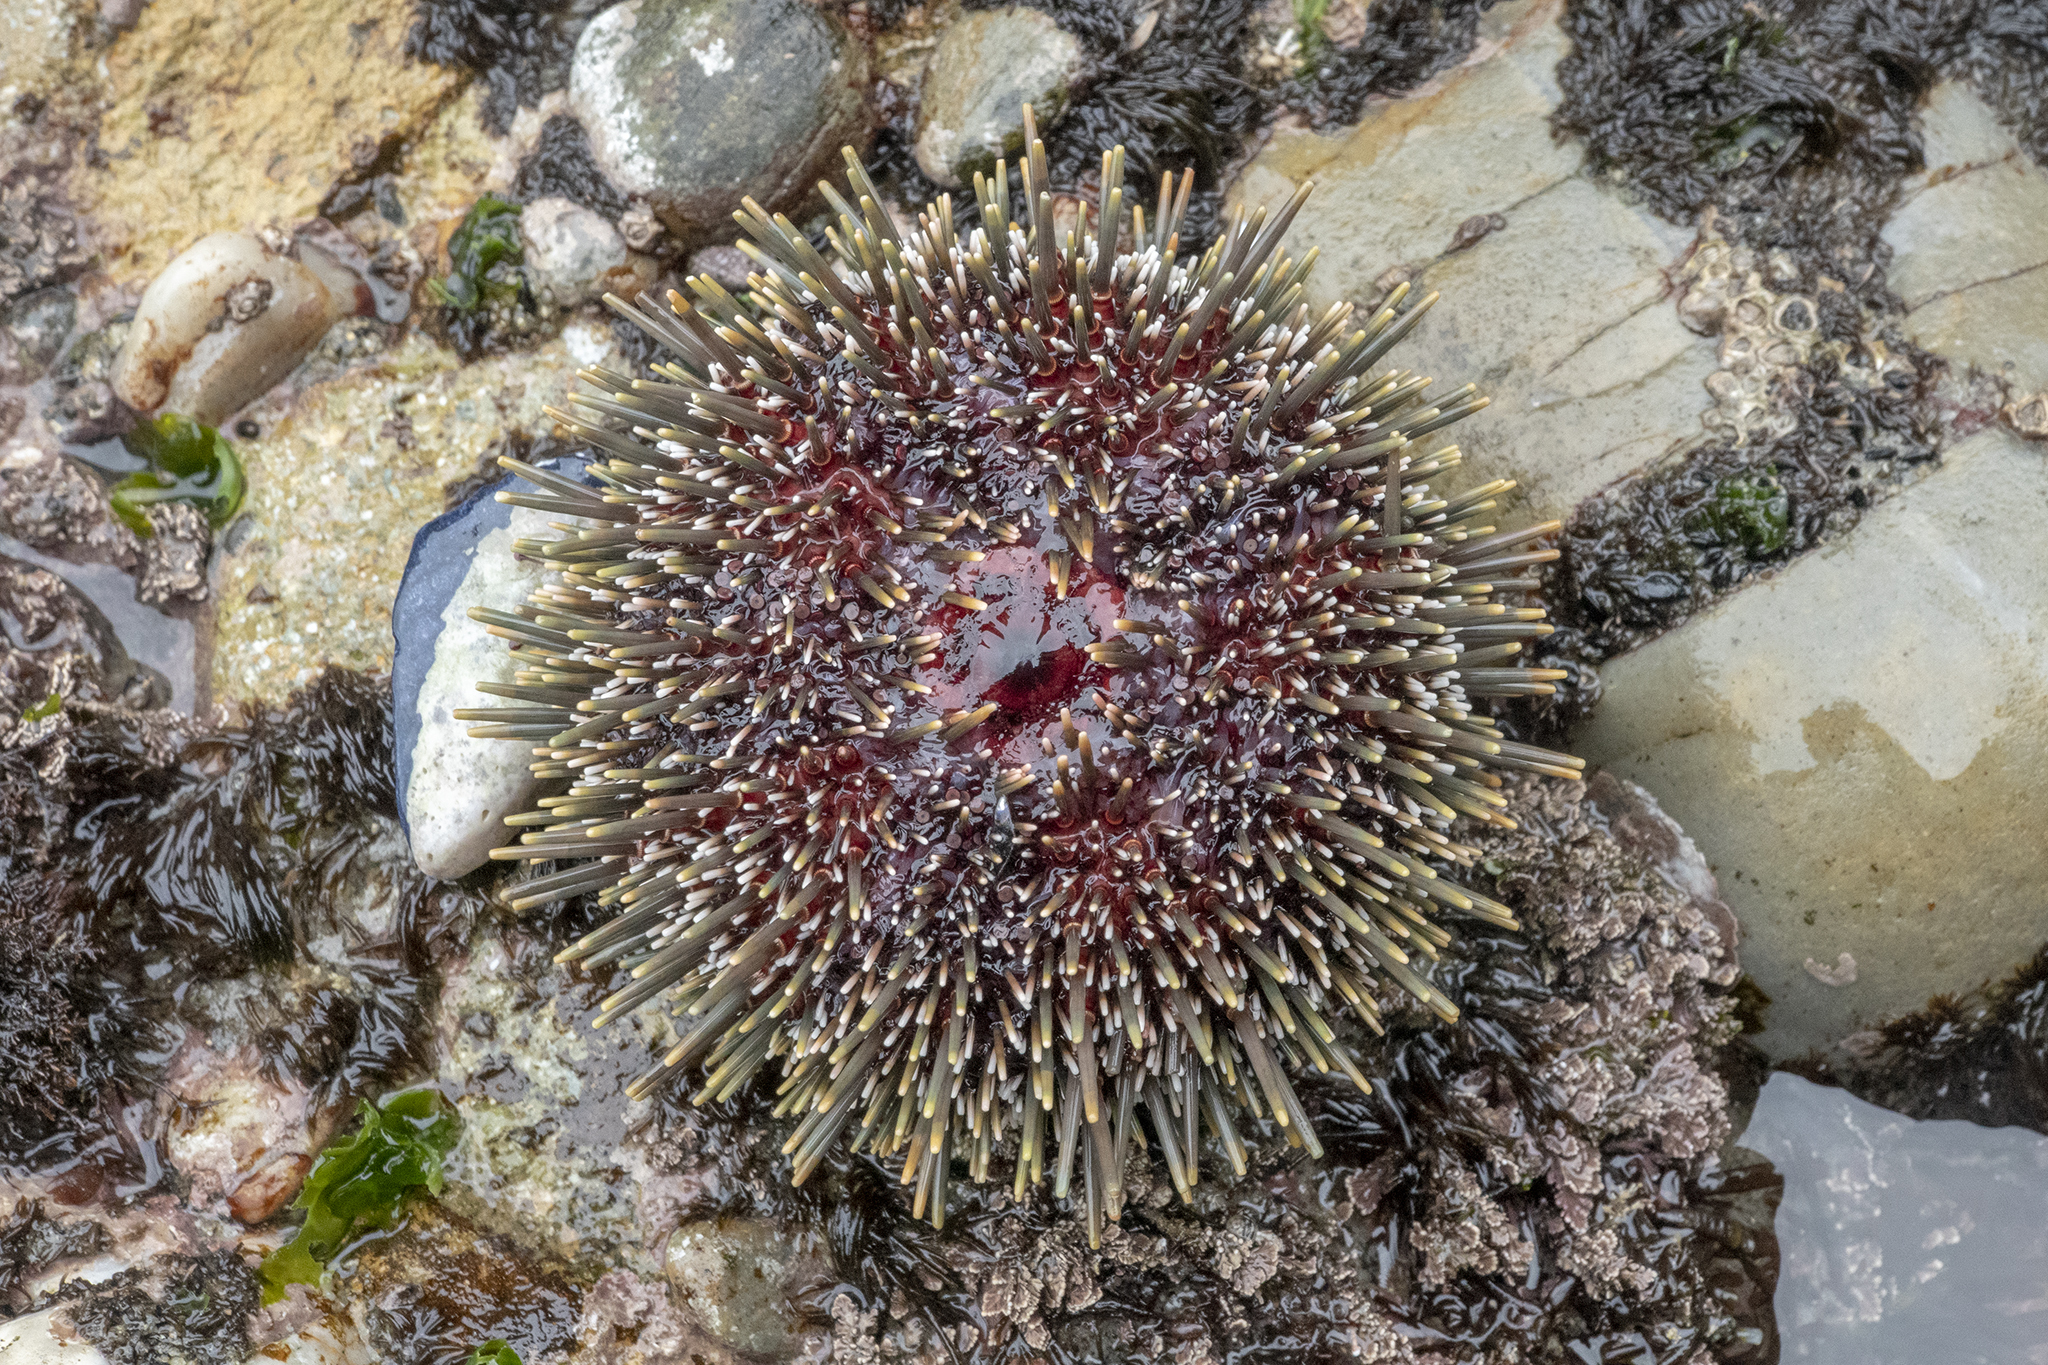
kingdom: Animalia
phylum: Echinodermata
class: Echinoidea
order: Camarodonta
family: Echinometridae
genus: Evechinus
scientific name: Evechinus chloroticus
